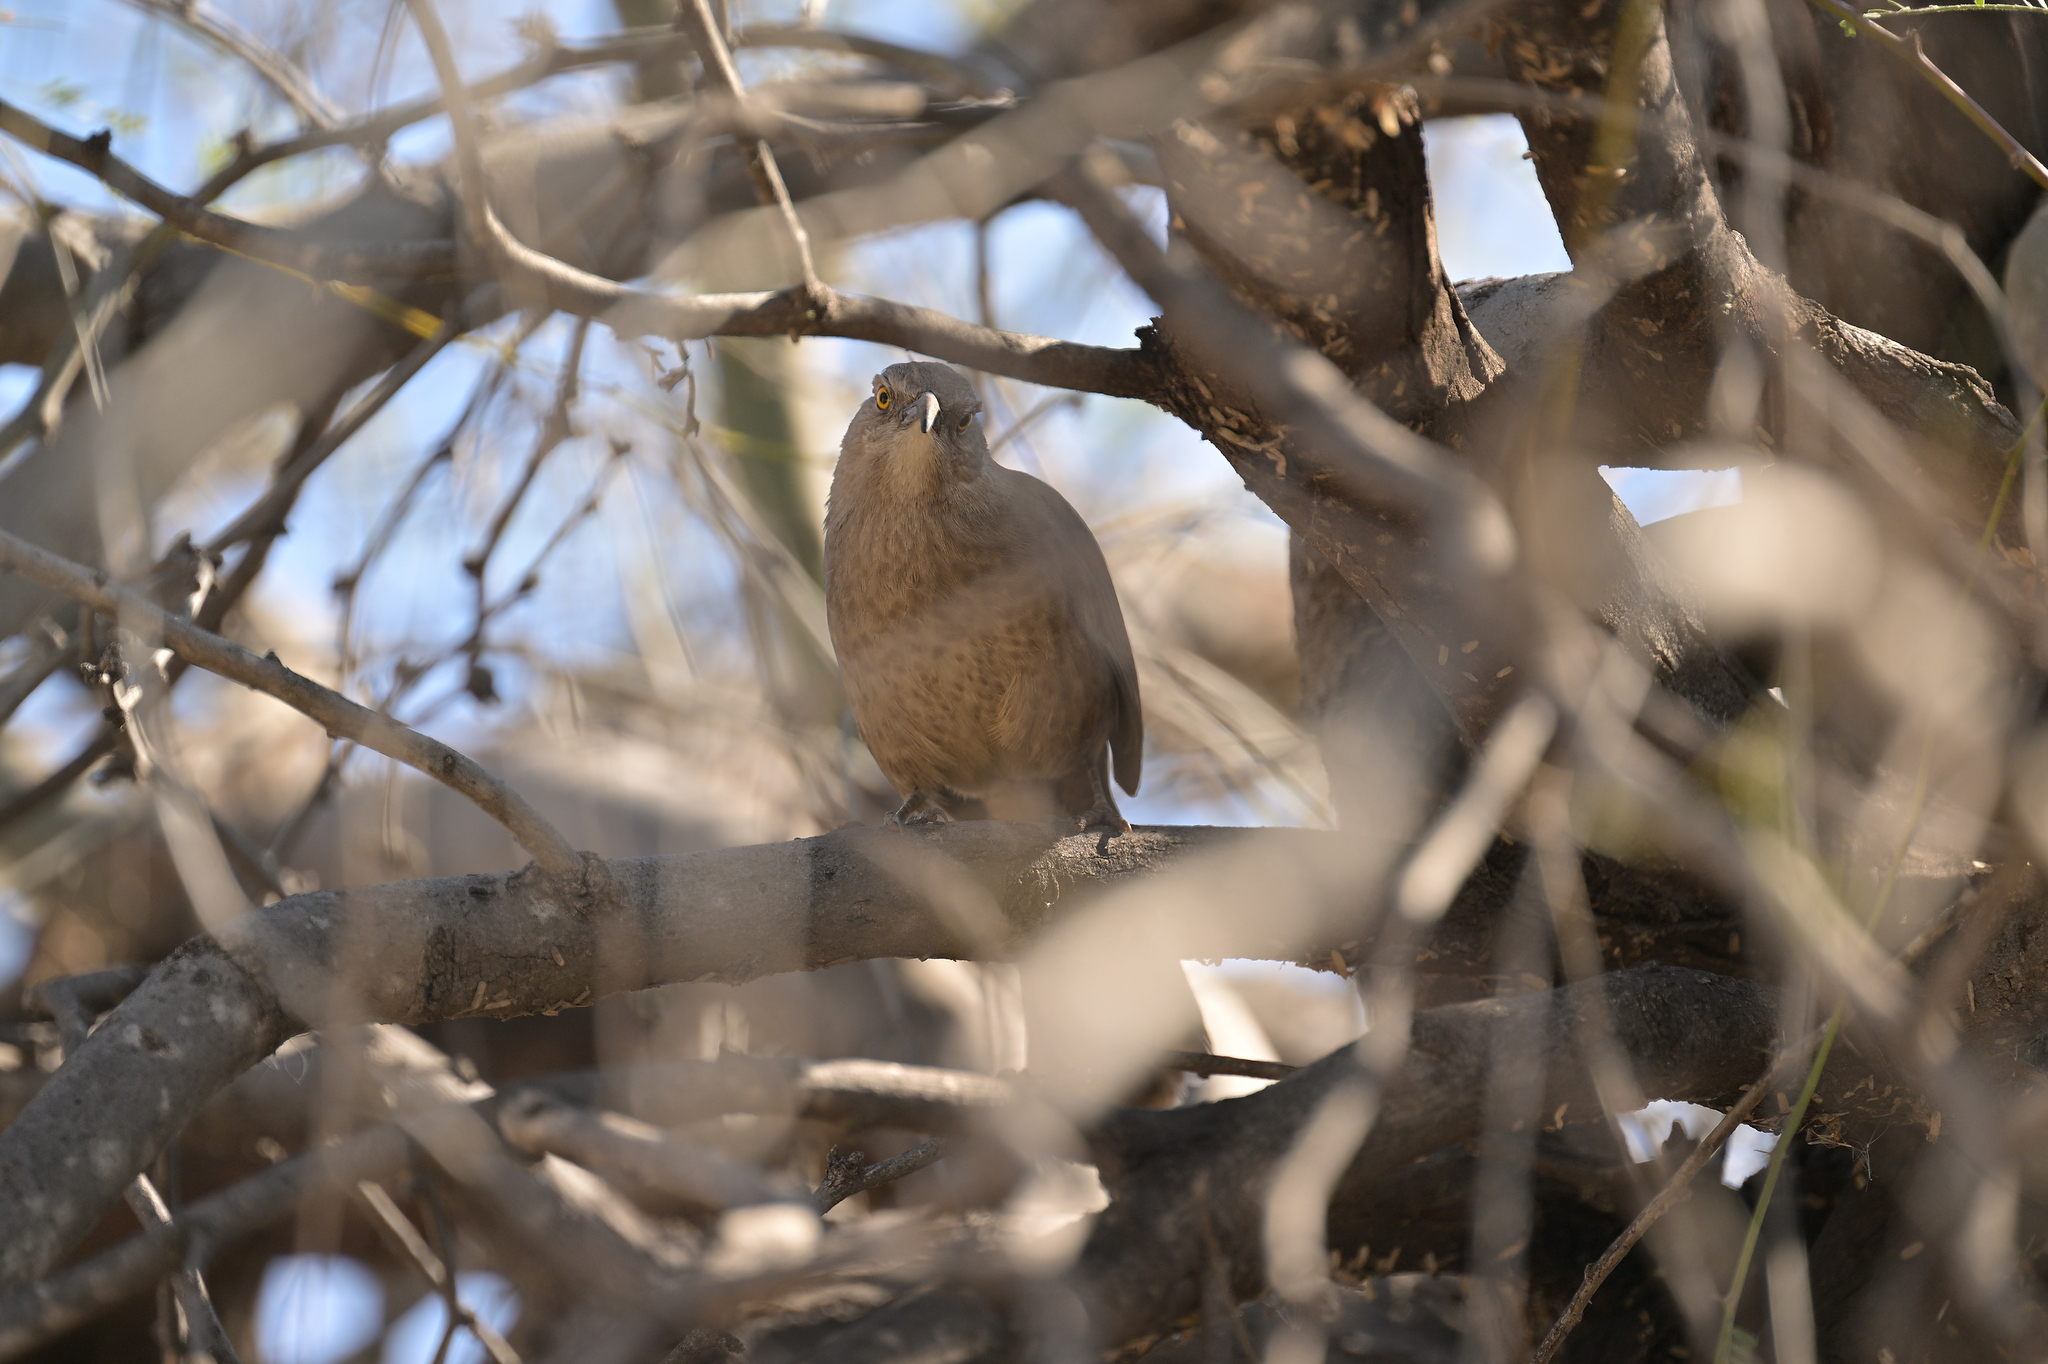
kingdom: Animalia
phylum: Chordata
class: Aves
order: Passeriformes
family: Mimidae
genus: Toxostoma
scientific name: Toxostoma curvirostre
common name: Curve-billed thrasher
